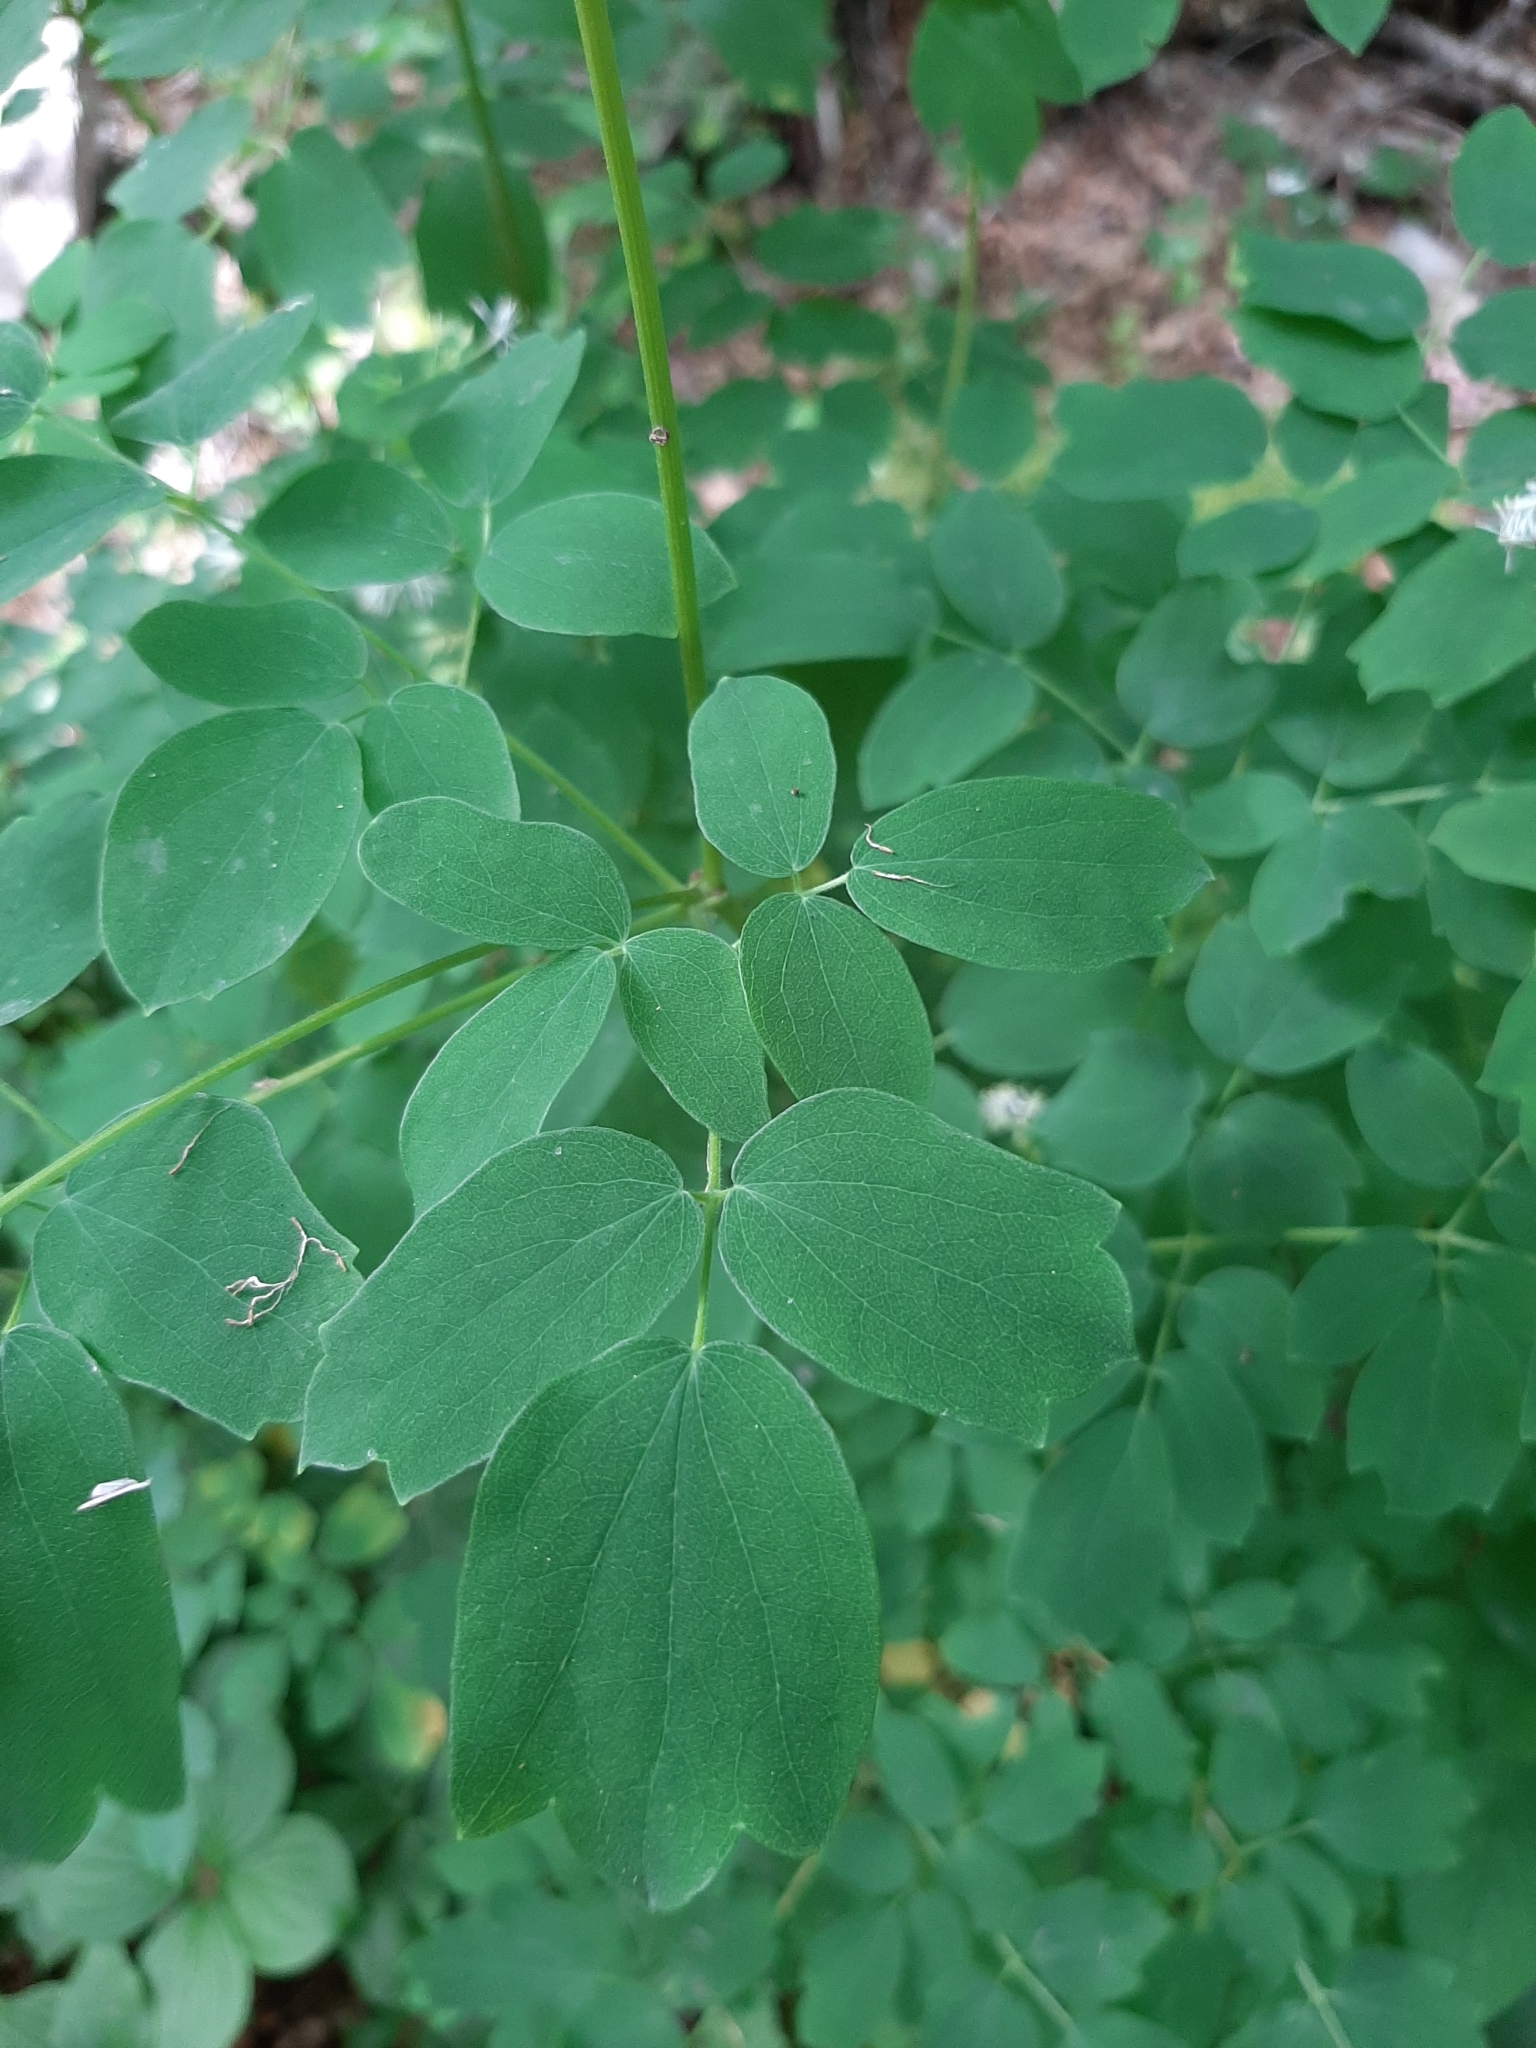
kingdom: Plantae
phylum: Tracheophyta
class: Magnoliopsida
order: Ranunculales
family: Ranunculaceae
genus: Thalictrum
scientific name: Thalictrum pubescens
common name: King-of-the-meadow
